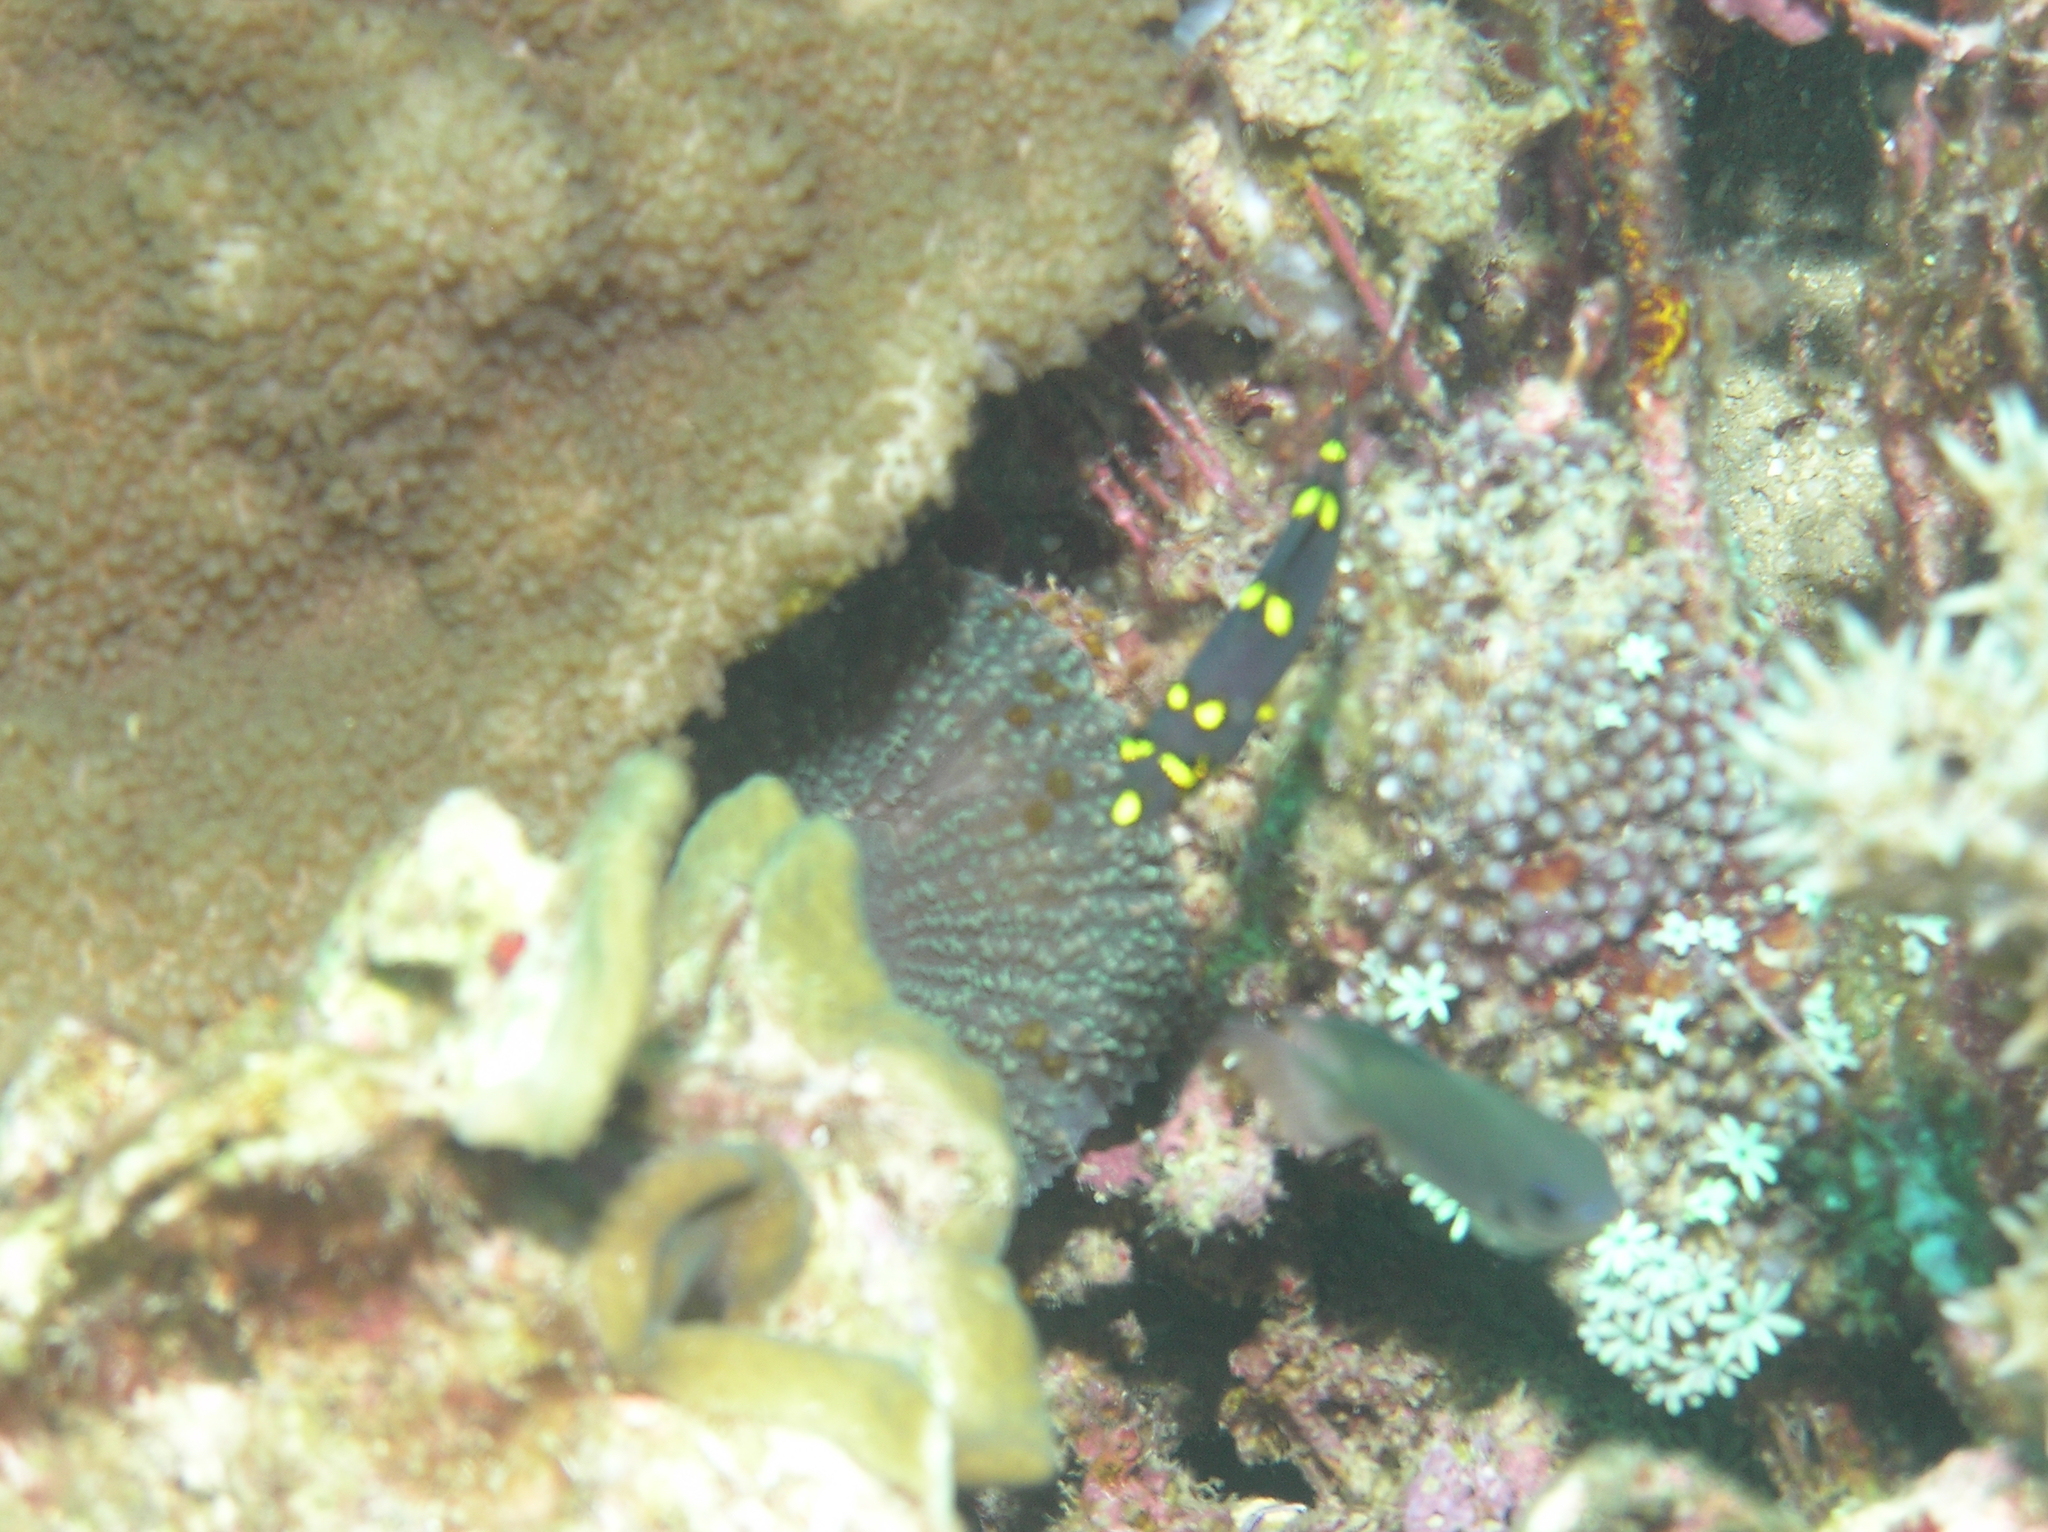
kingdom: Animalia
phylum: Chordata
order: Perciformes
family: Labridae
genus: Bodianus
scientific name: Bodianus mesothorax
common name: Coral hogfish
